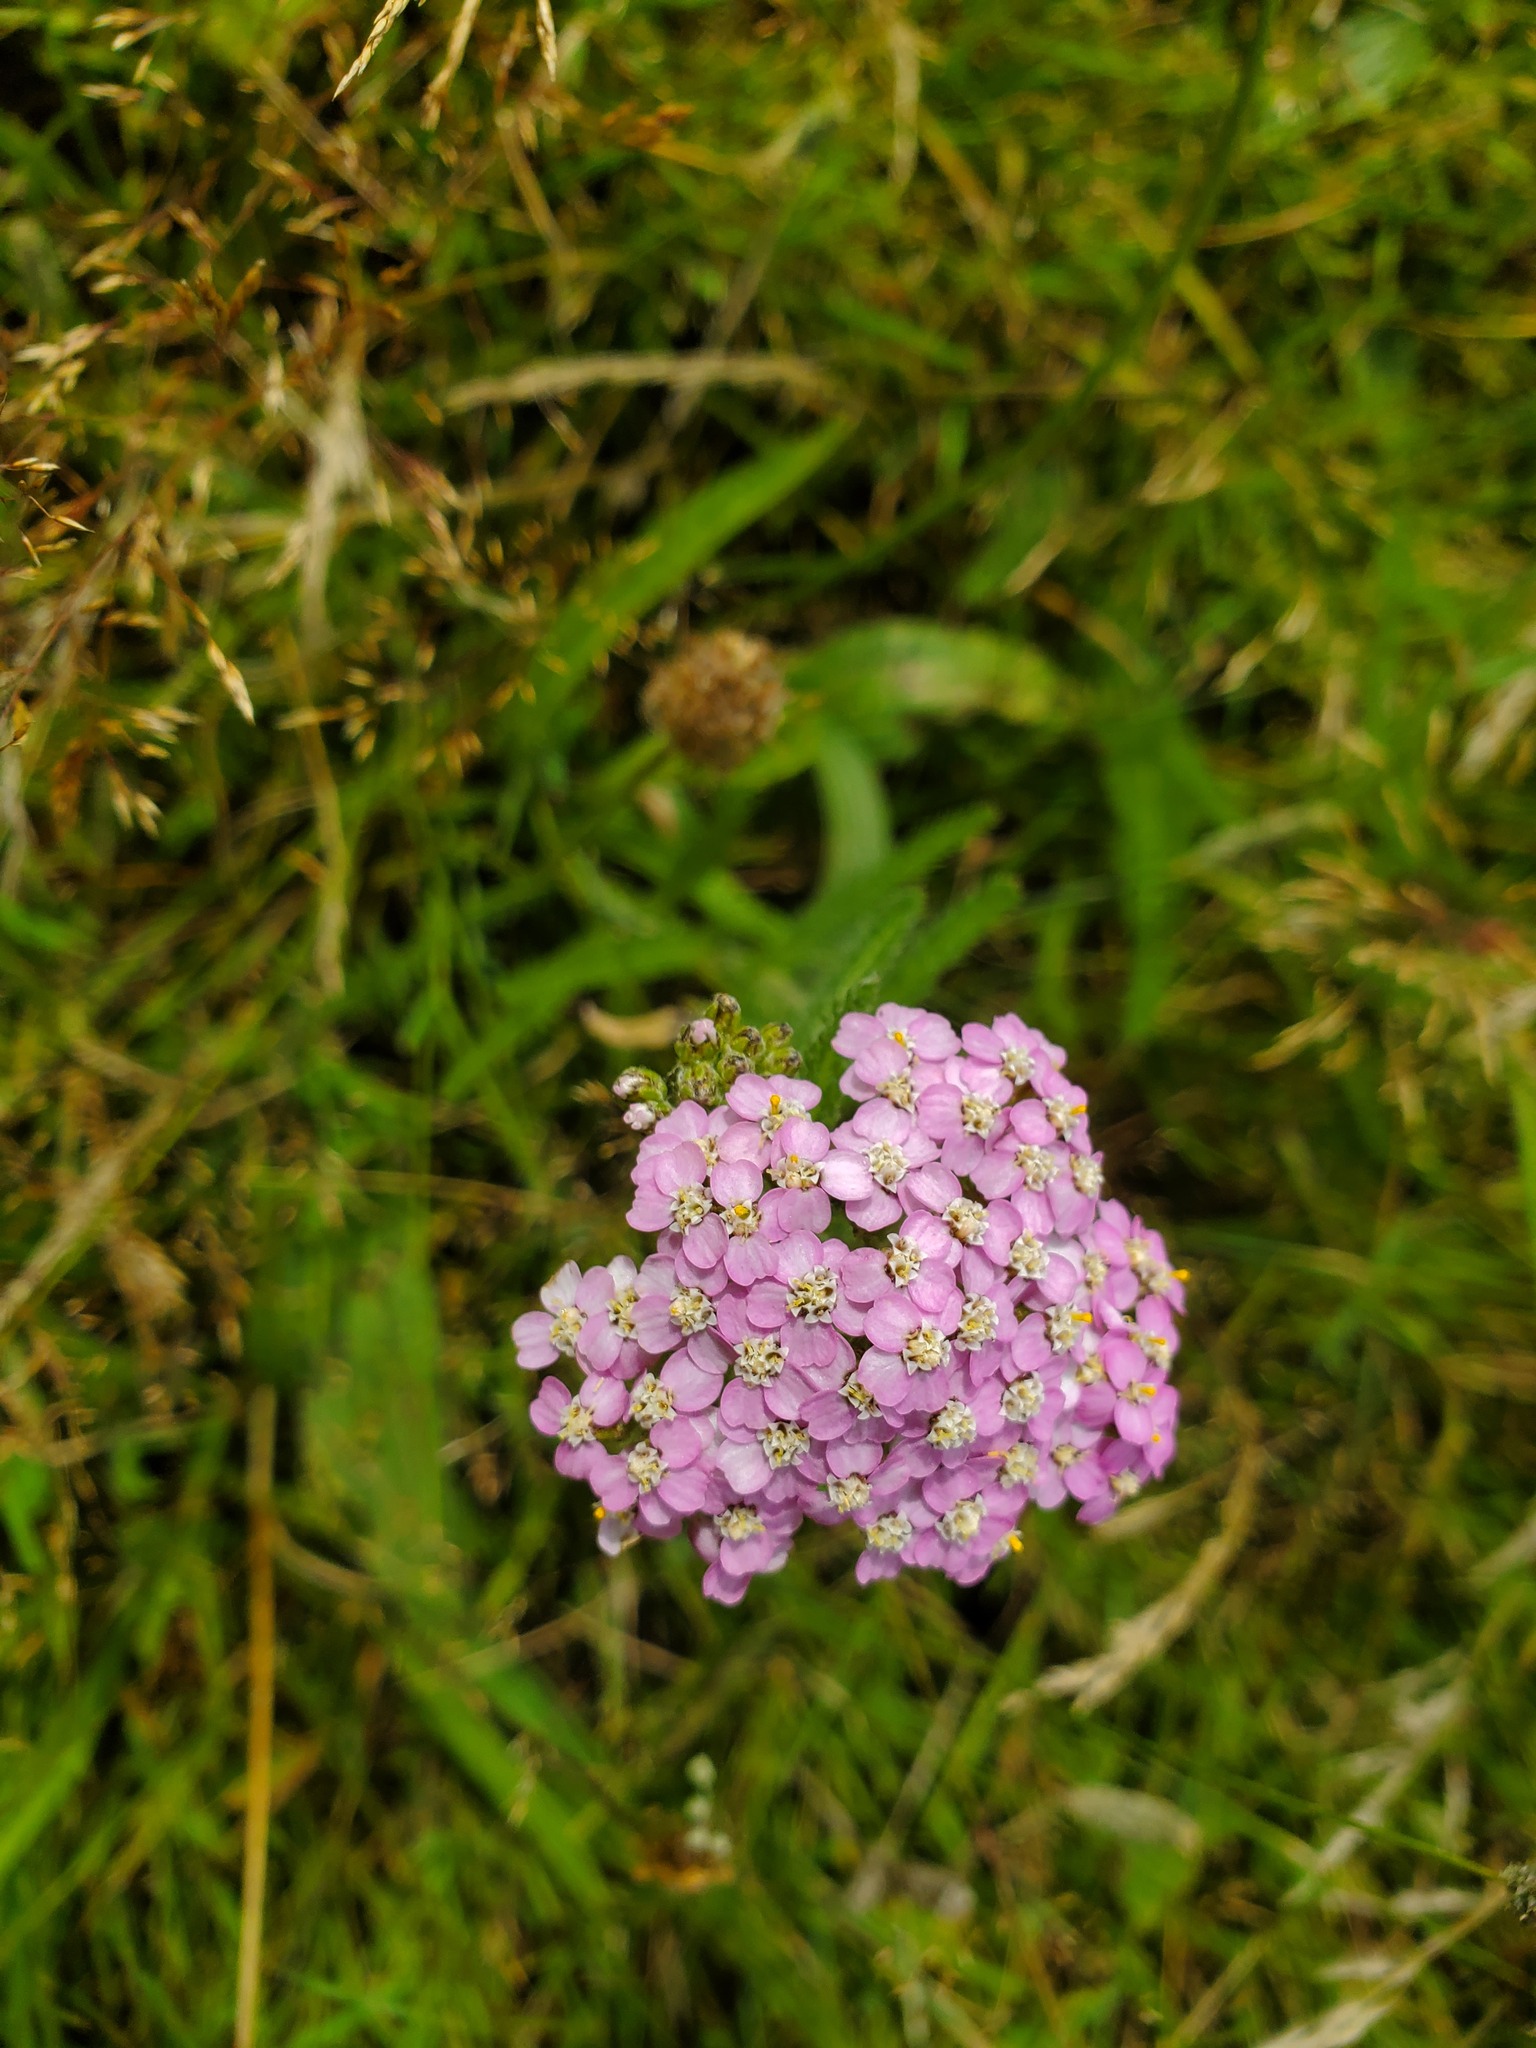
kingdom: Plantae
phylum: Tracheophyta
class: Magnoliopsida
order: Asterales
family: Asteraceae
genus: Achillea
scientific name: Achillea millefolium
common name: Yarrow
